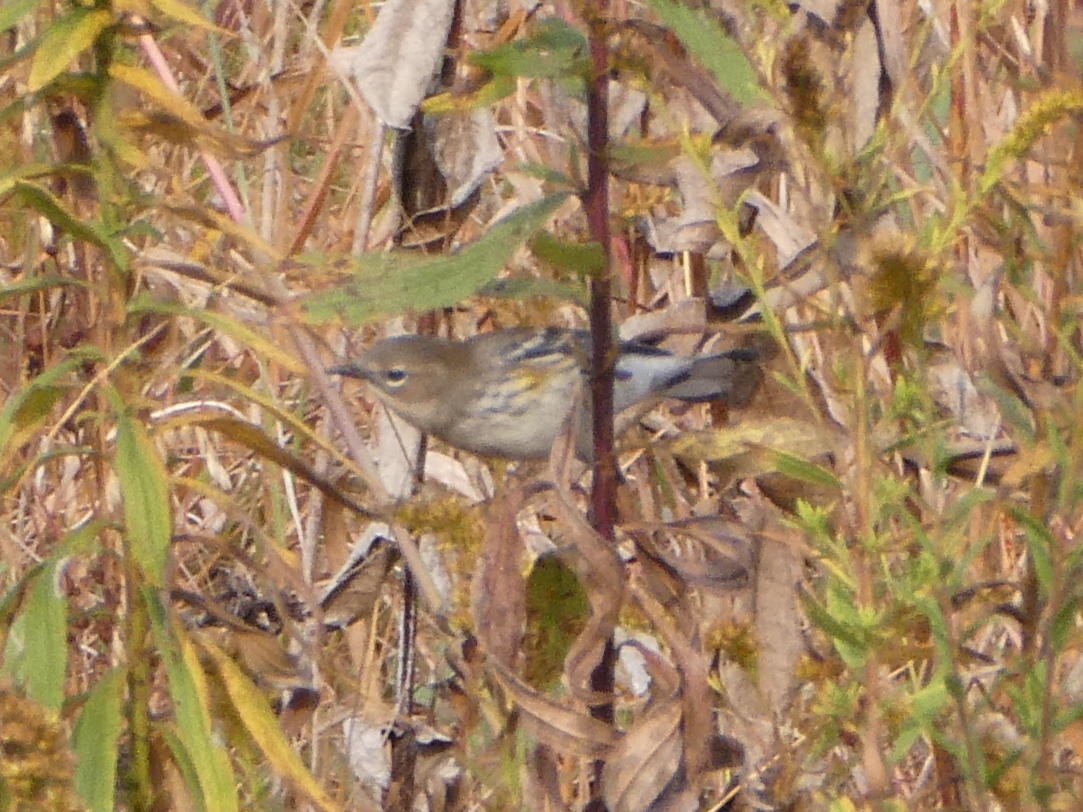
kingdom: Animalia
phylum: Chordata
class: Aves
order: Passeriformes
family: Parulidae
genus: Setophaga
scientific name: Setophaga coronata
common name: Myrtle warbler
